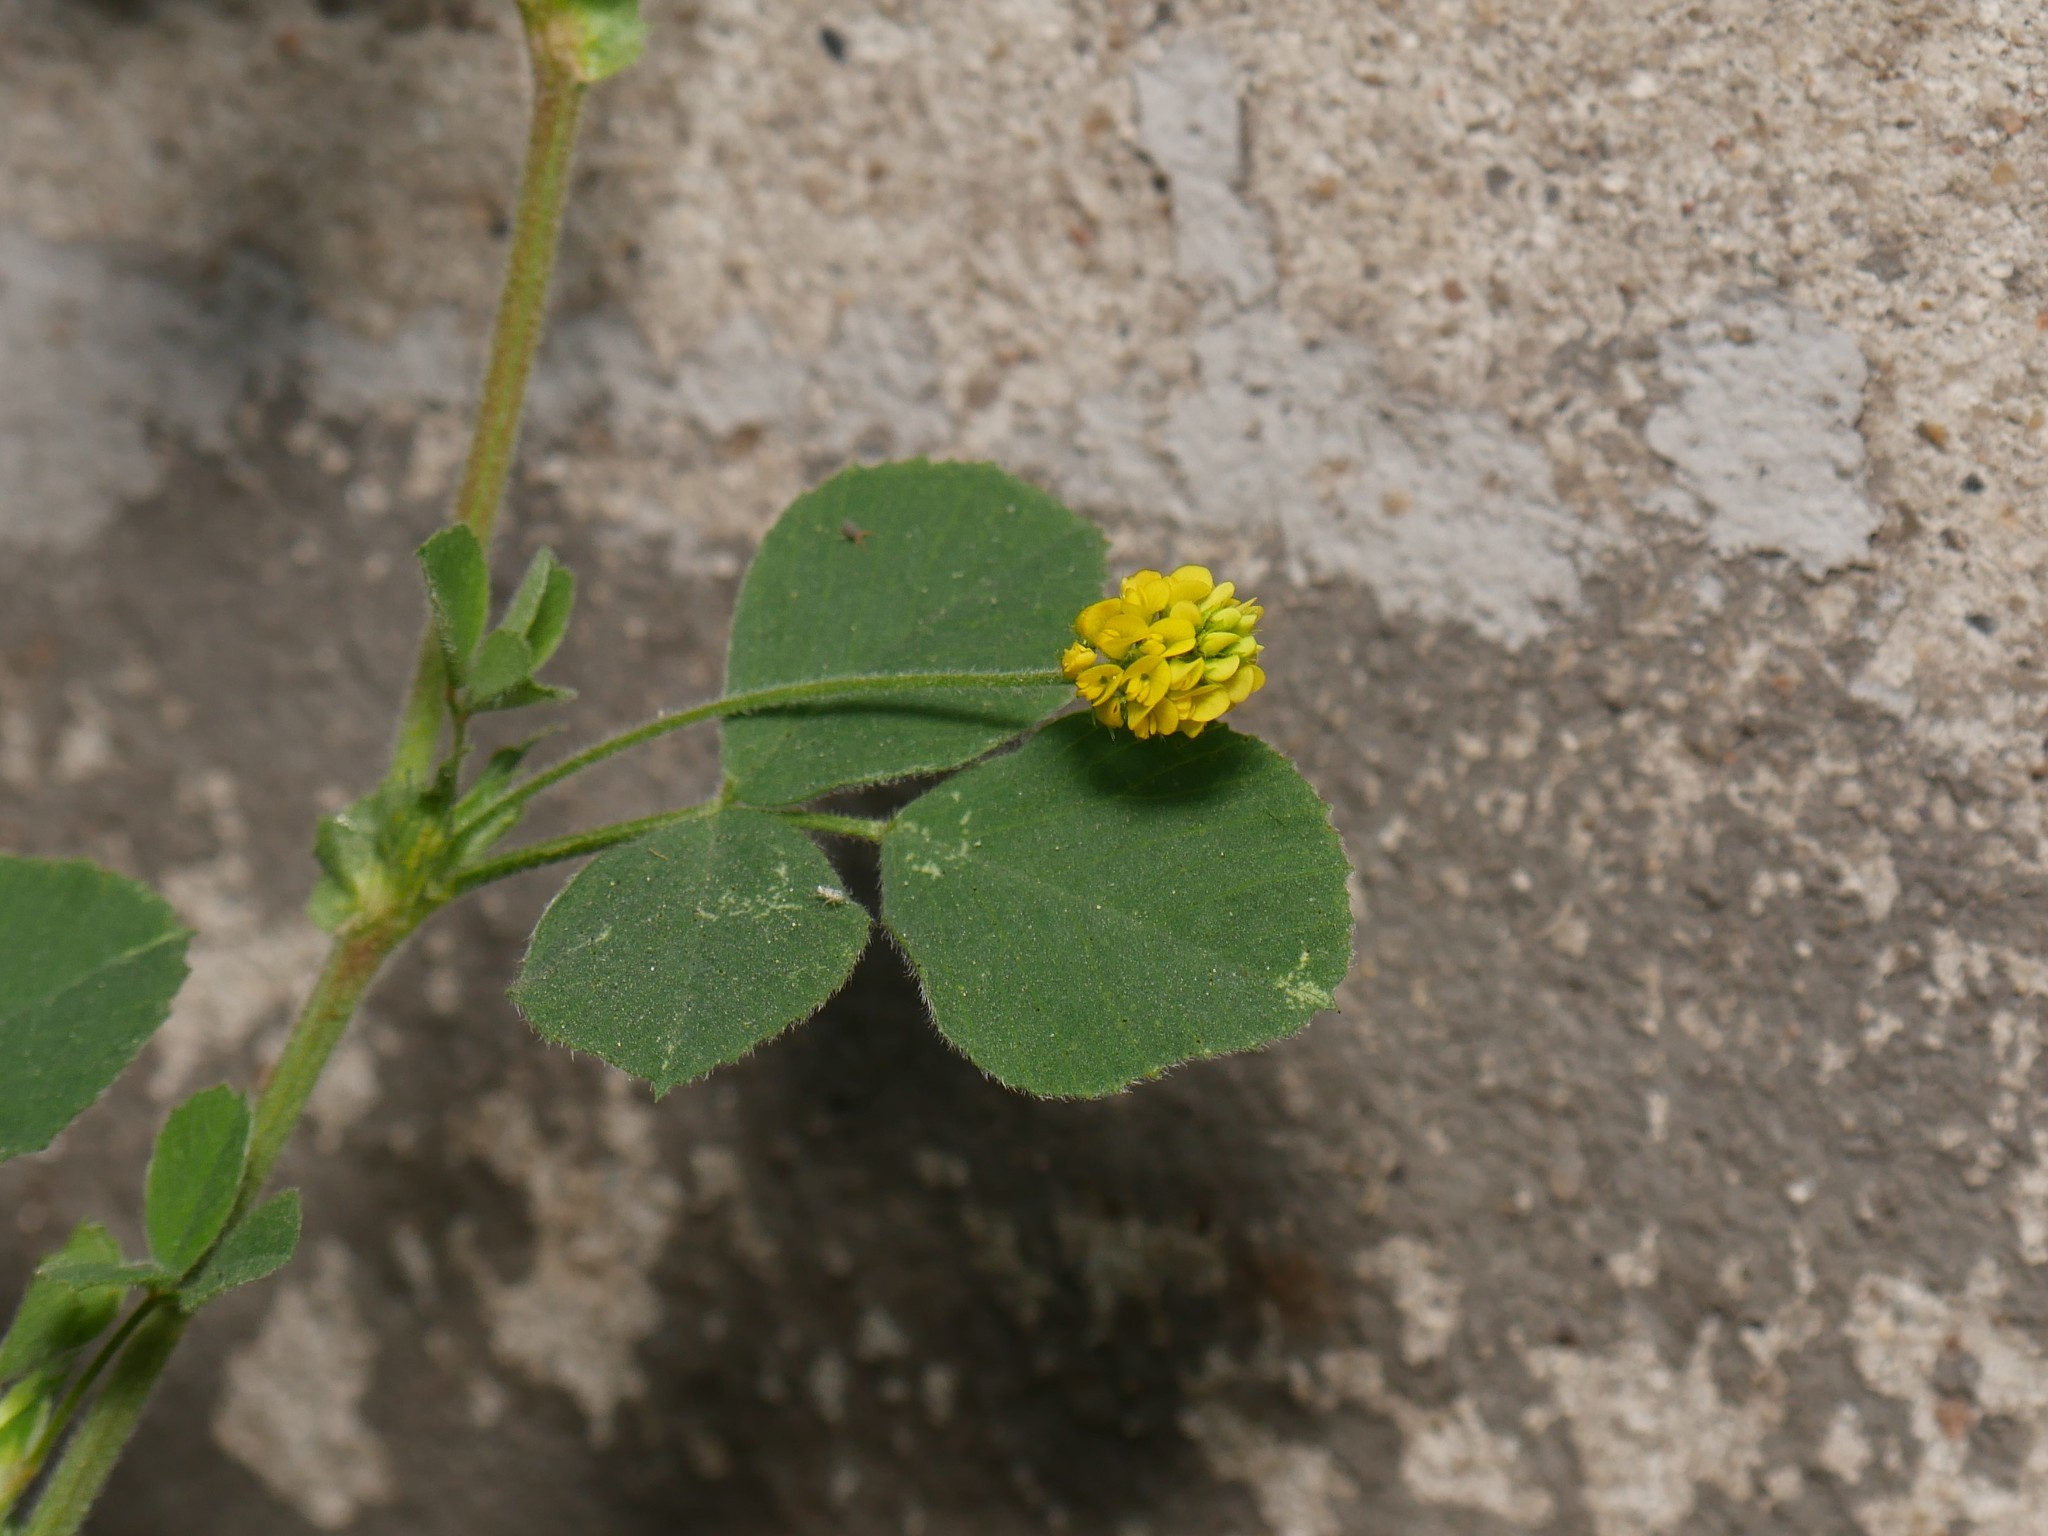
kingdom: Plantae
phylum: Tracheophyta
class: Magnoliopsida
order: Fabales
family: Fabaceae
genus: Medicago
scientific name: Medicago lupulina
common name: Black medick
